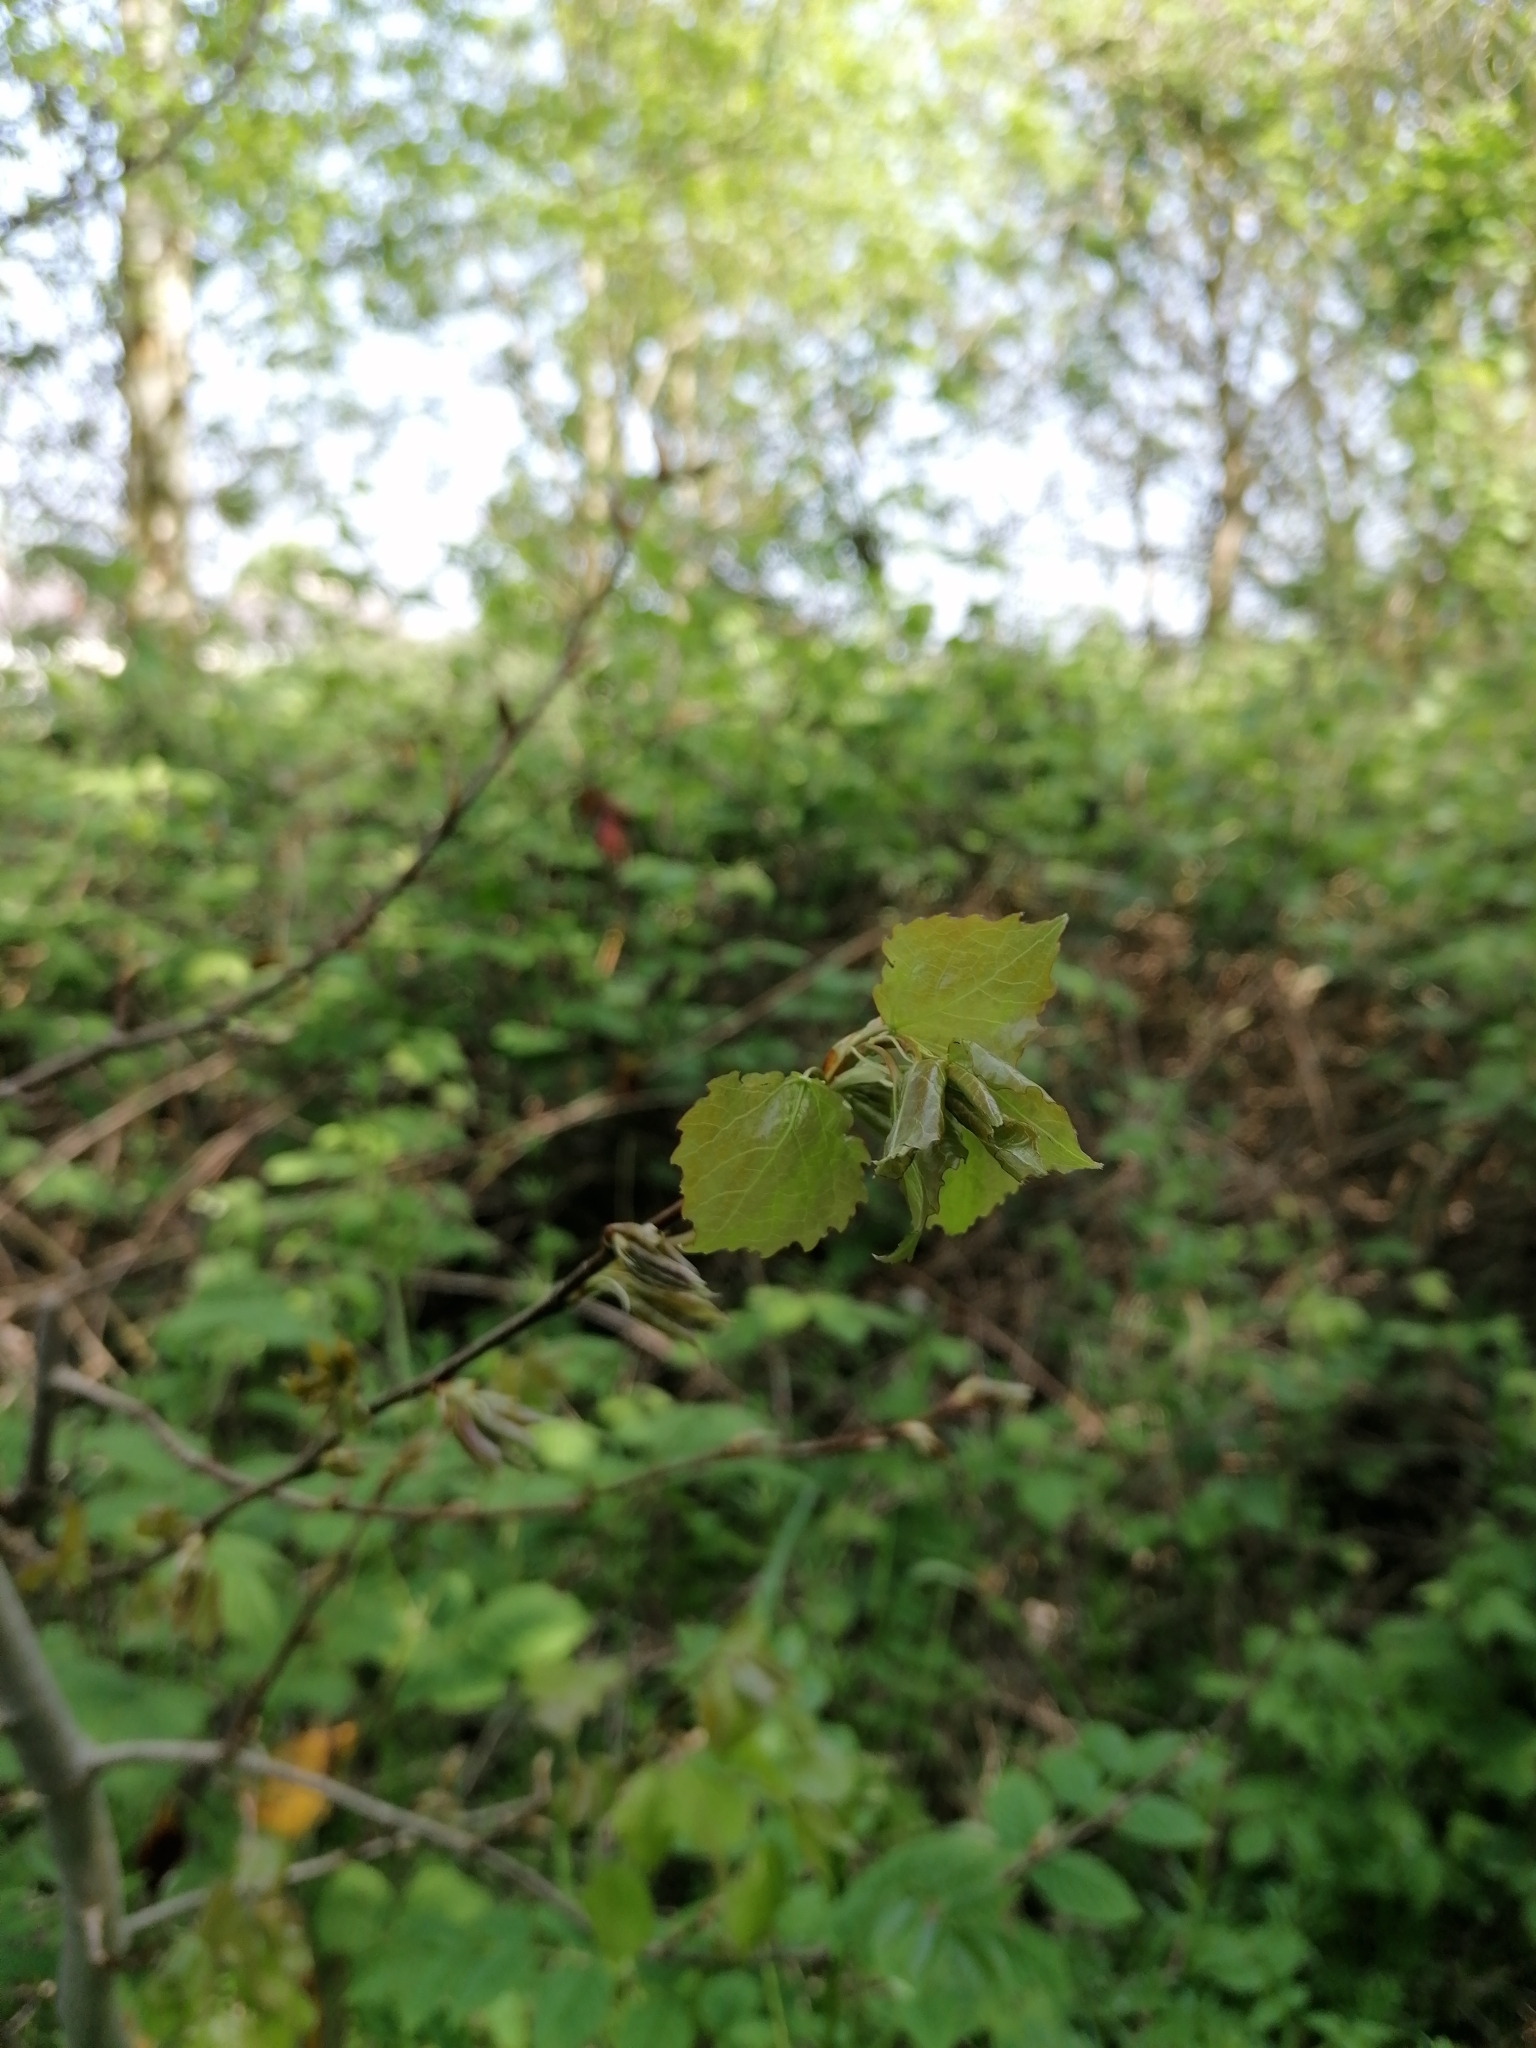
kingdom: Plantae
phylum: Tracheophyta
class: Magnoliopsida
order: Malpighiales
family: Salicaceae
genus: Populus
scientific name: Populus tremula
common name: European aspen
